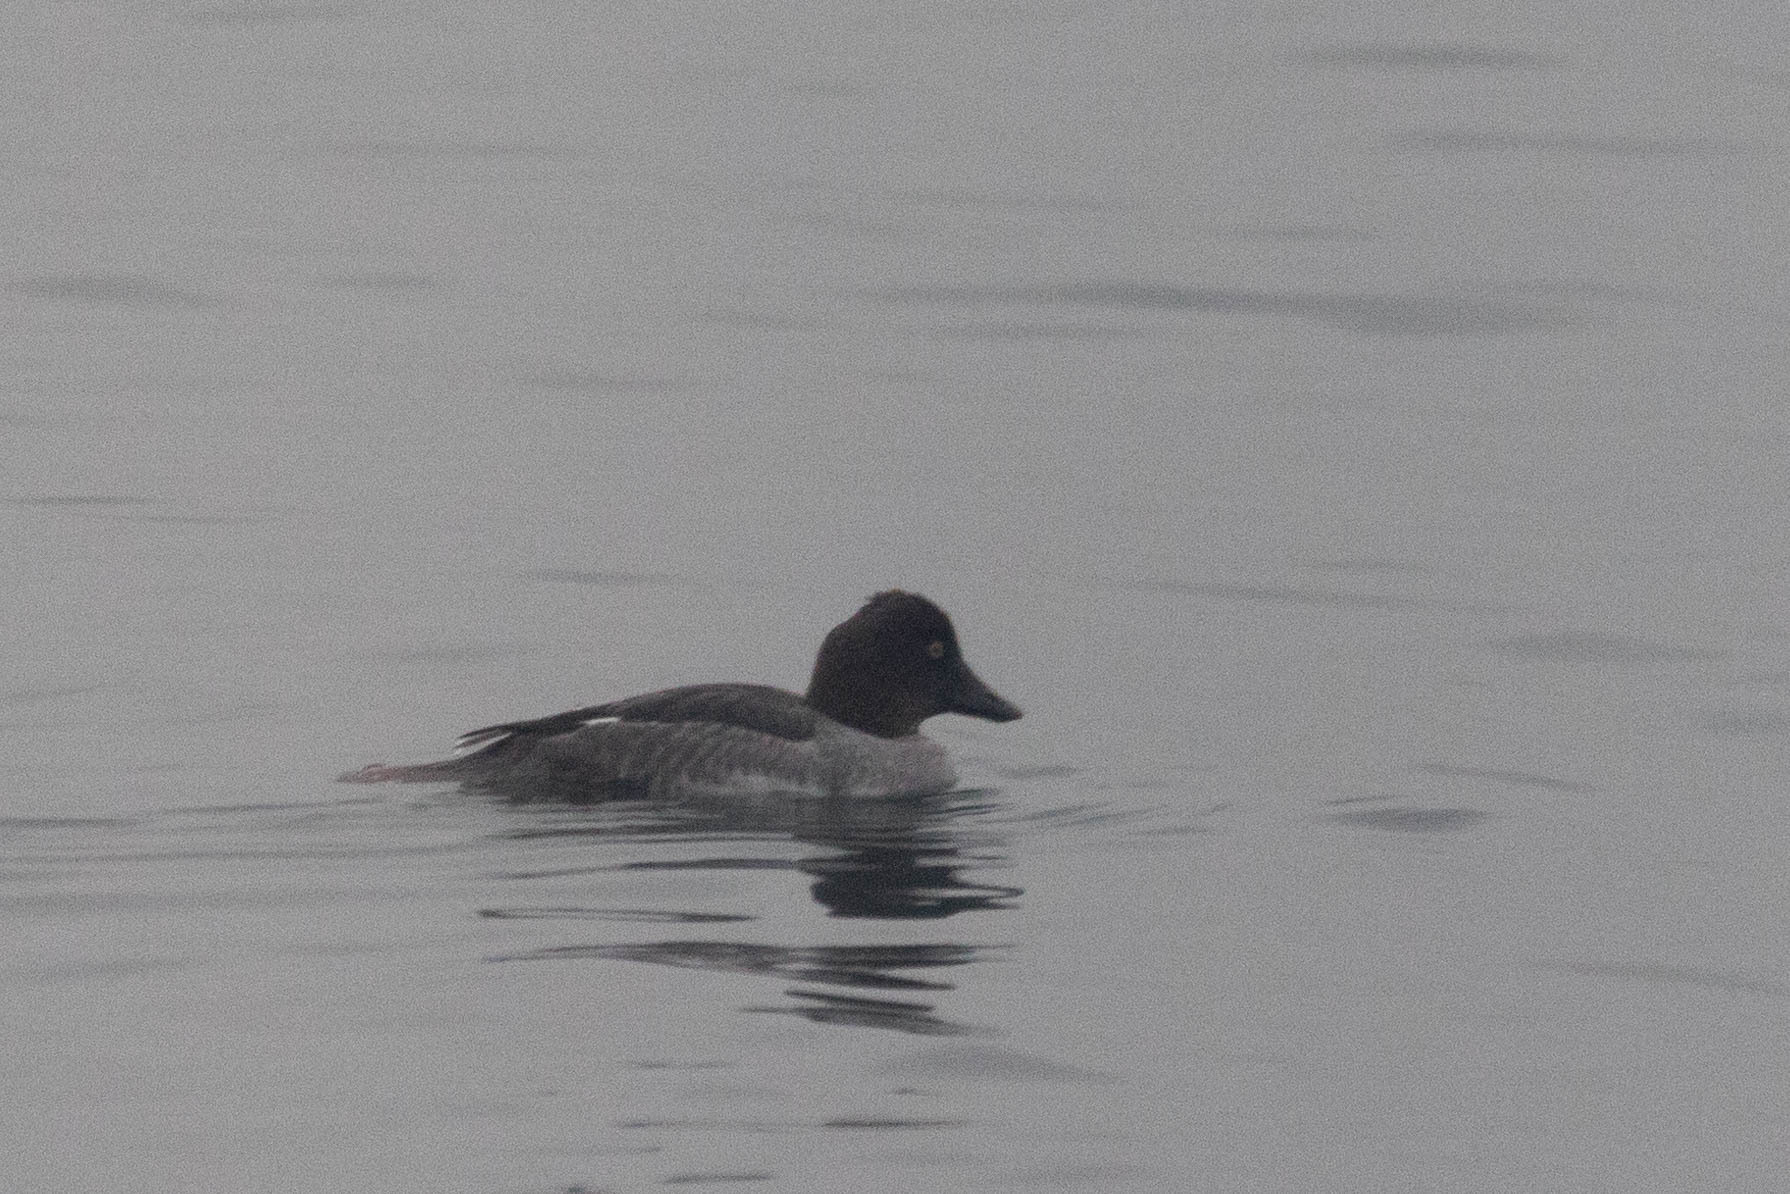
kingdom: Animalia
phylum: Chordata
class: Aves
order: Anseriformes
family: Anatidae
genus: Bucephala
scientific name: Bucephala clangula
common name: Common goldeneye
